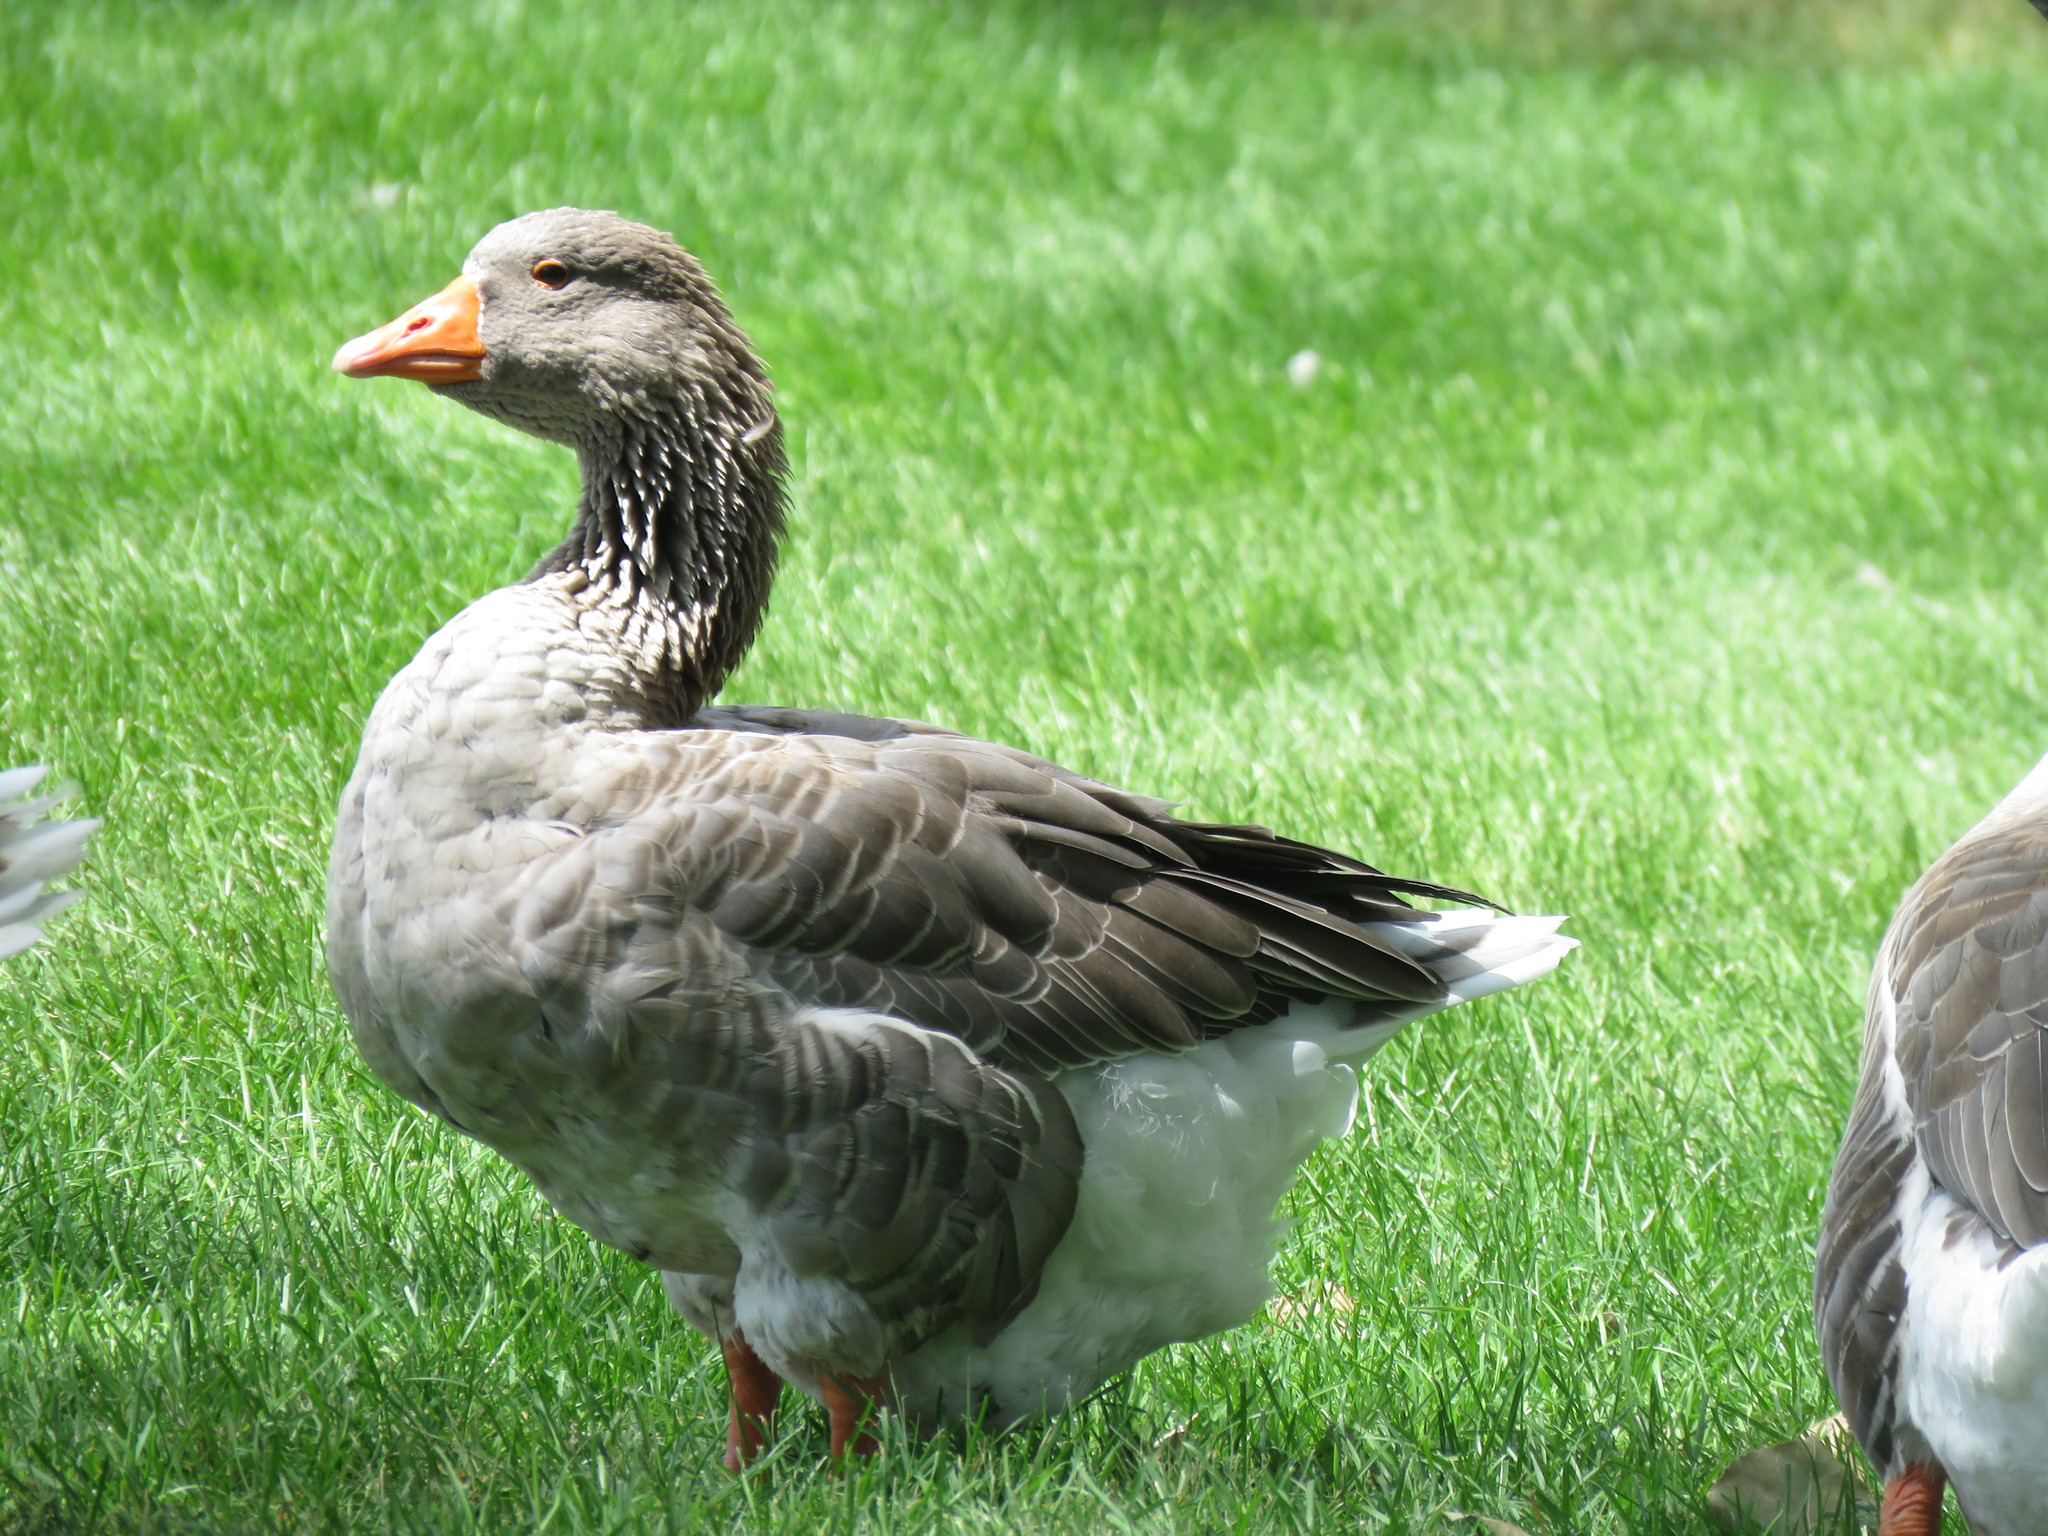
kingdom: Animalia
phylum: Chordata
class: Aves
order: Anseriformes
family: Anatidae
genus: Anser
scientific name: Anser anser
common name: Greylag goose
